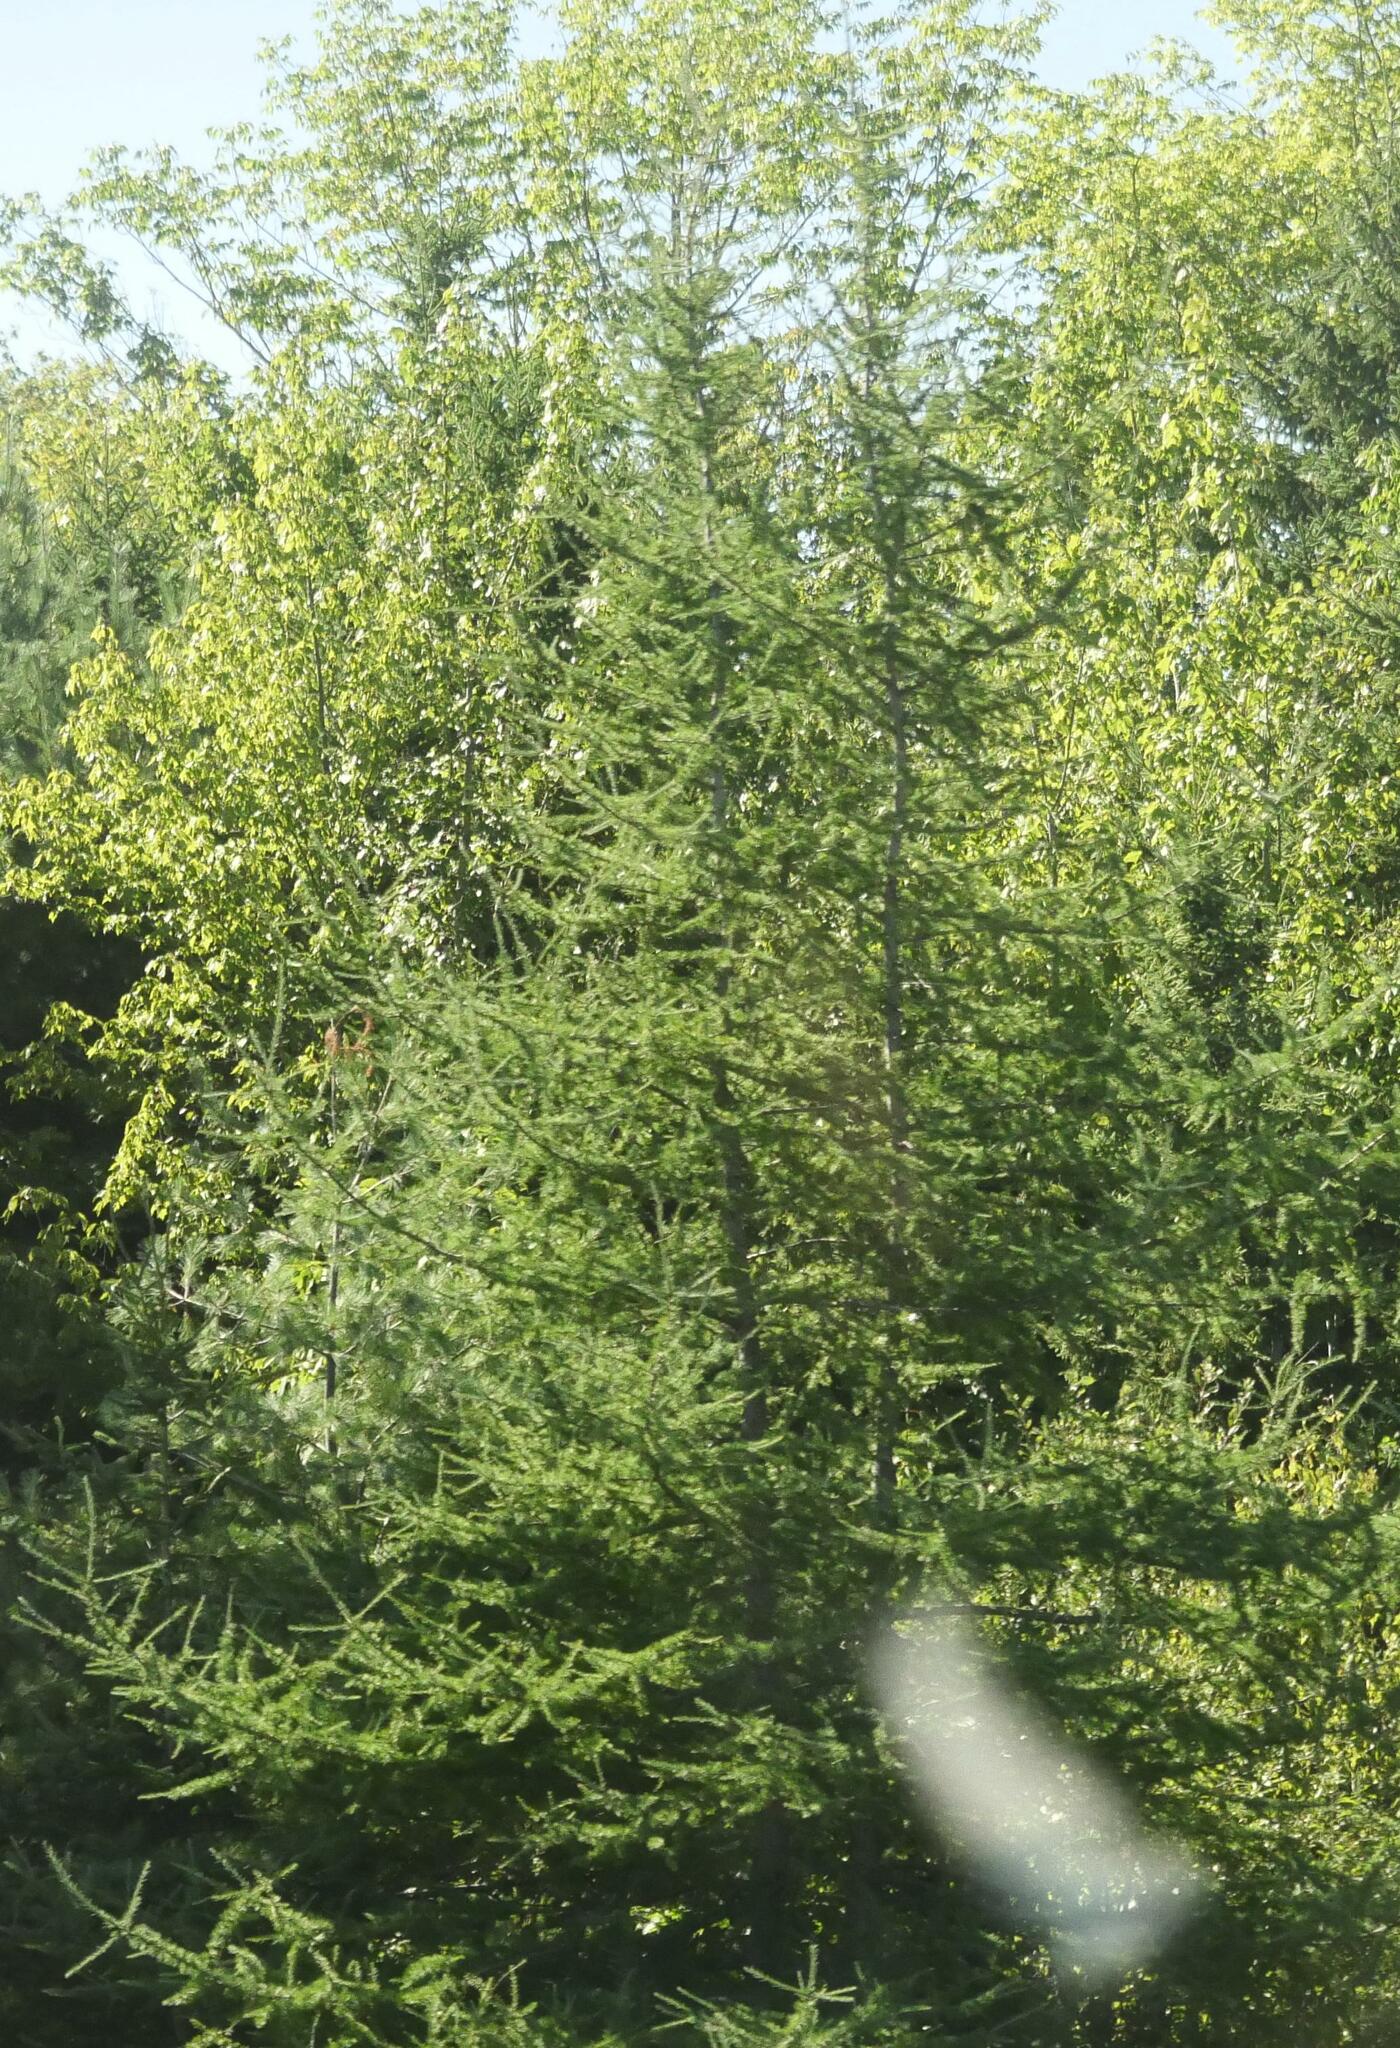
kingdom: Plantae
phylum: Tracheophyta
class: Pinopsida
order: Pinales
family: Pinaceae
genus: Larix
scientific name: Larix laricina
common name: American larch
